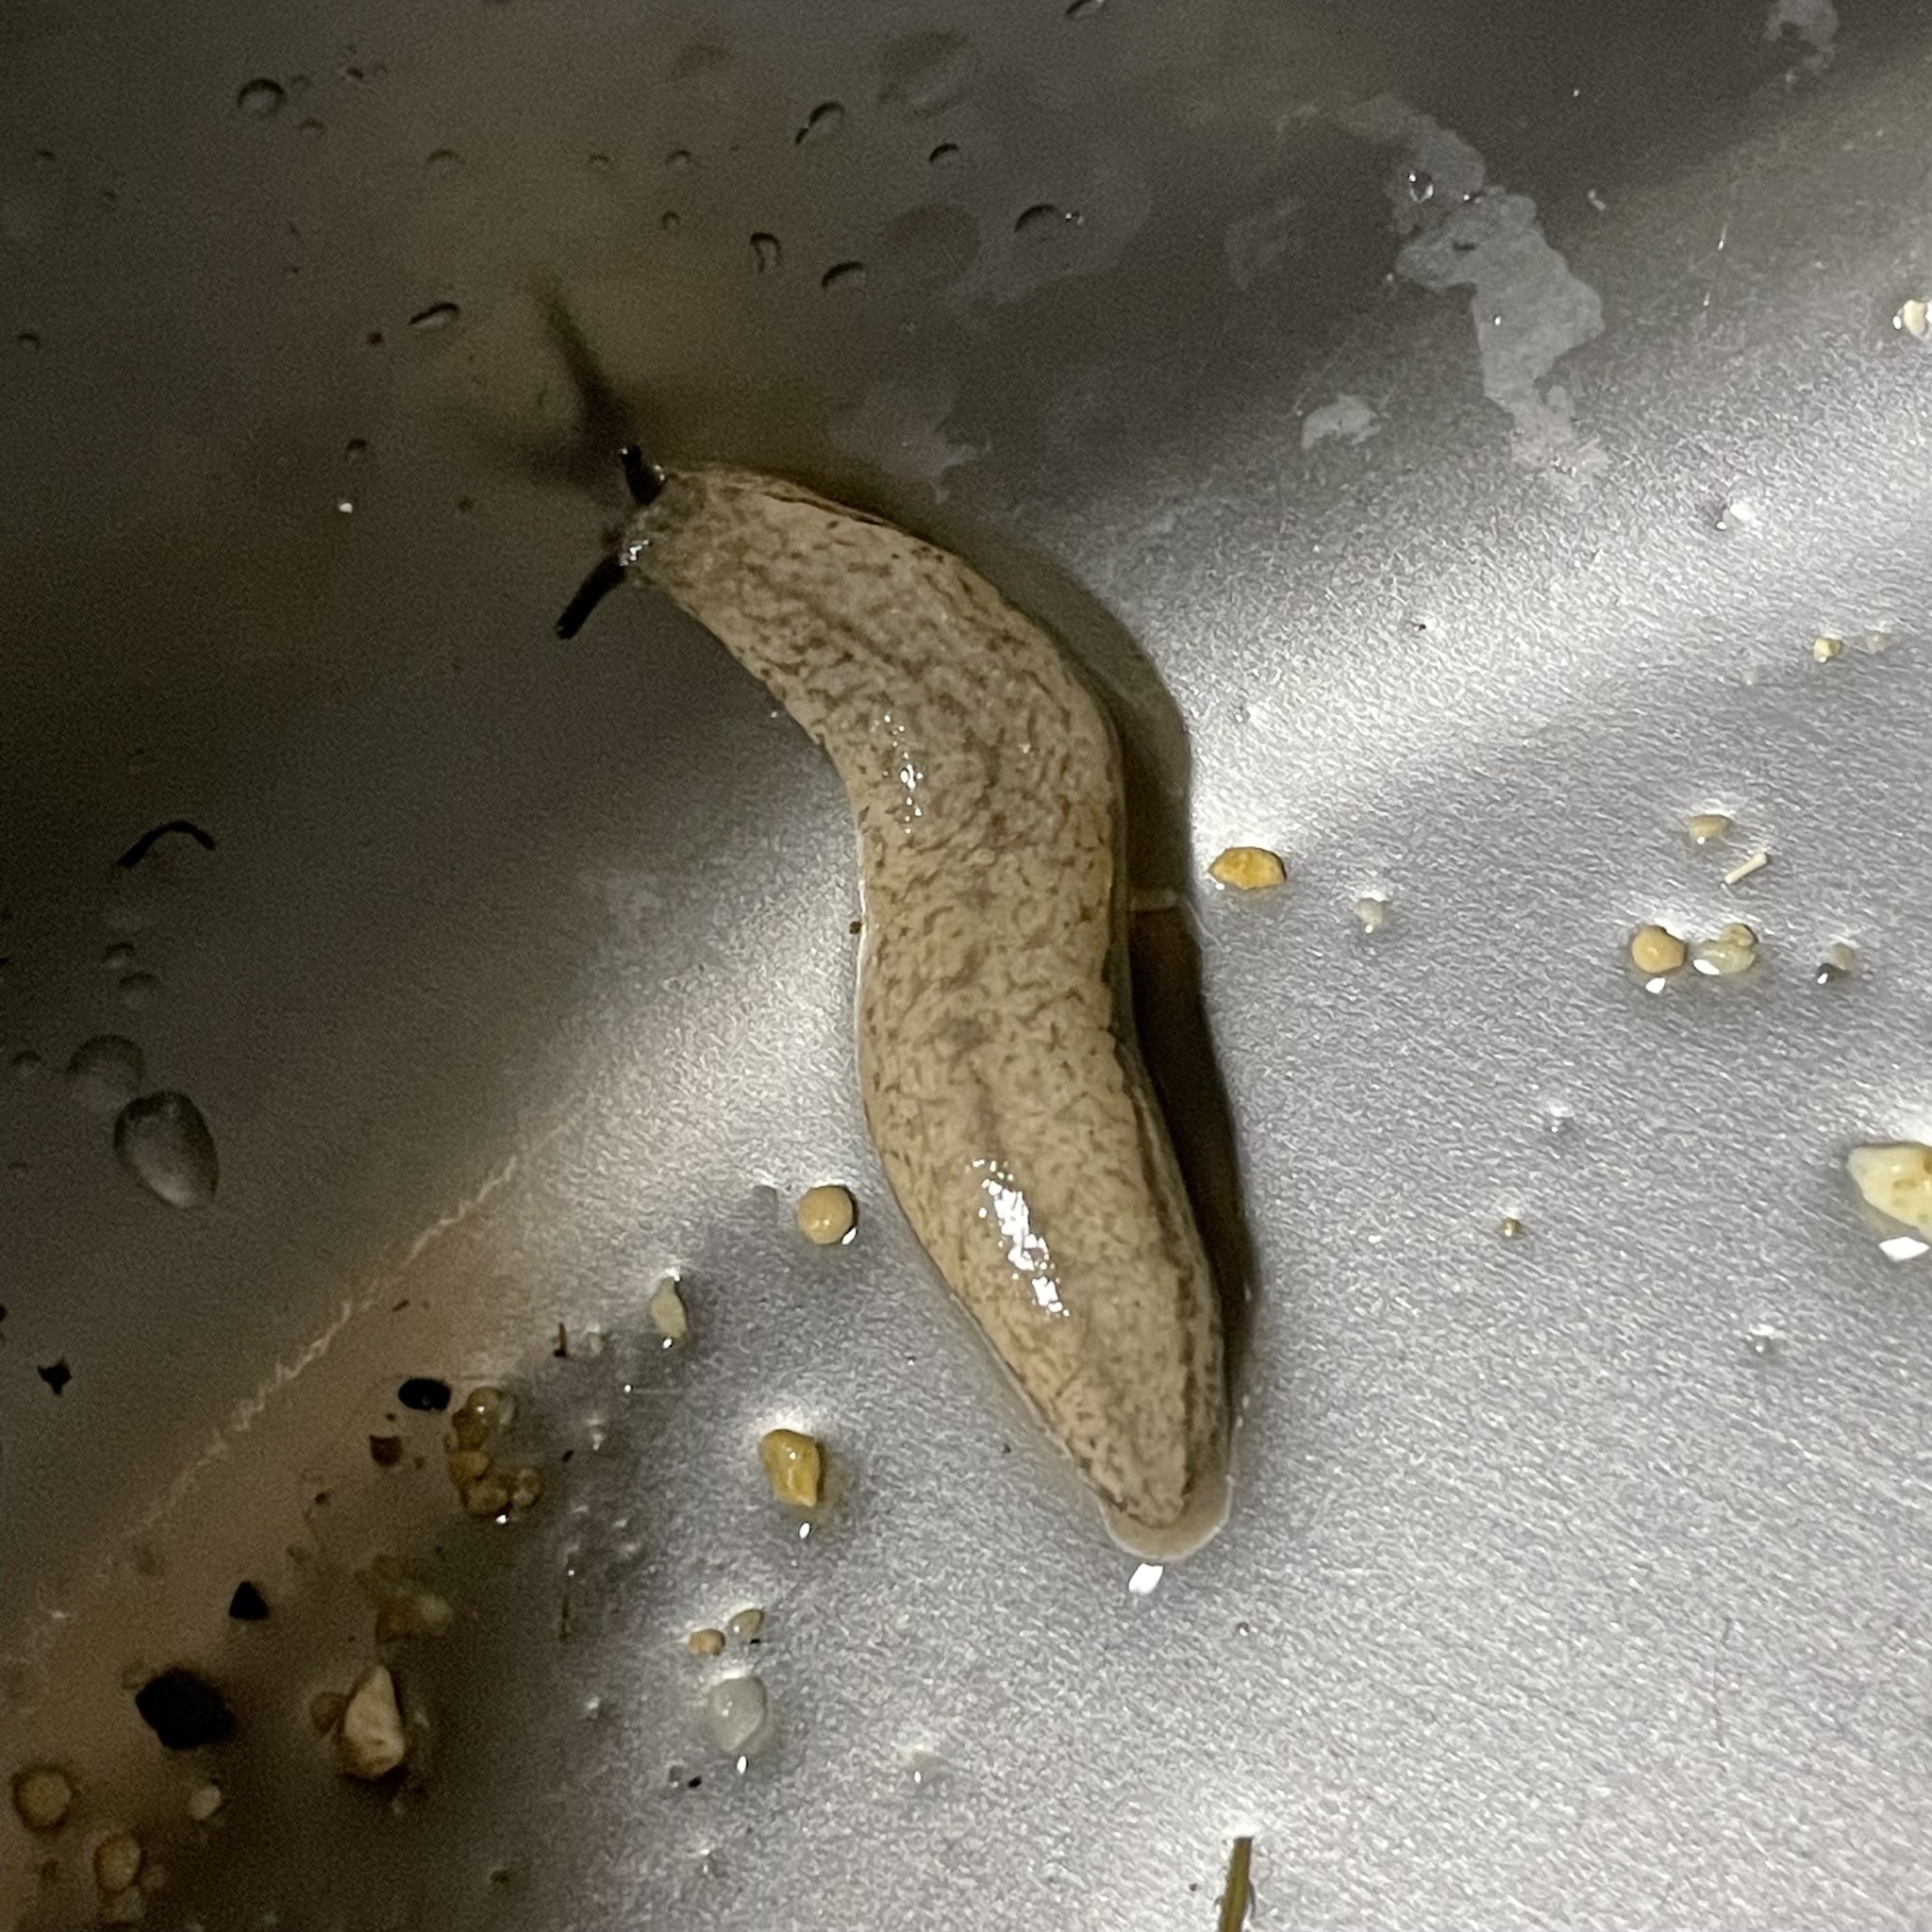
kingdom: Animalia
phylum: Mollusca
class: Gastropoda
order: Stylommatophora
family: Philomycidae
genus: Meghimatium
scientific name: Meghimatium bilineatum
